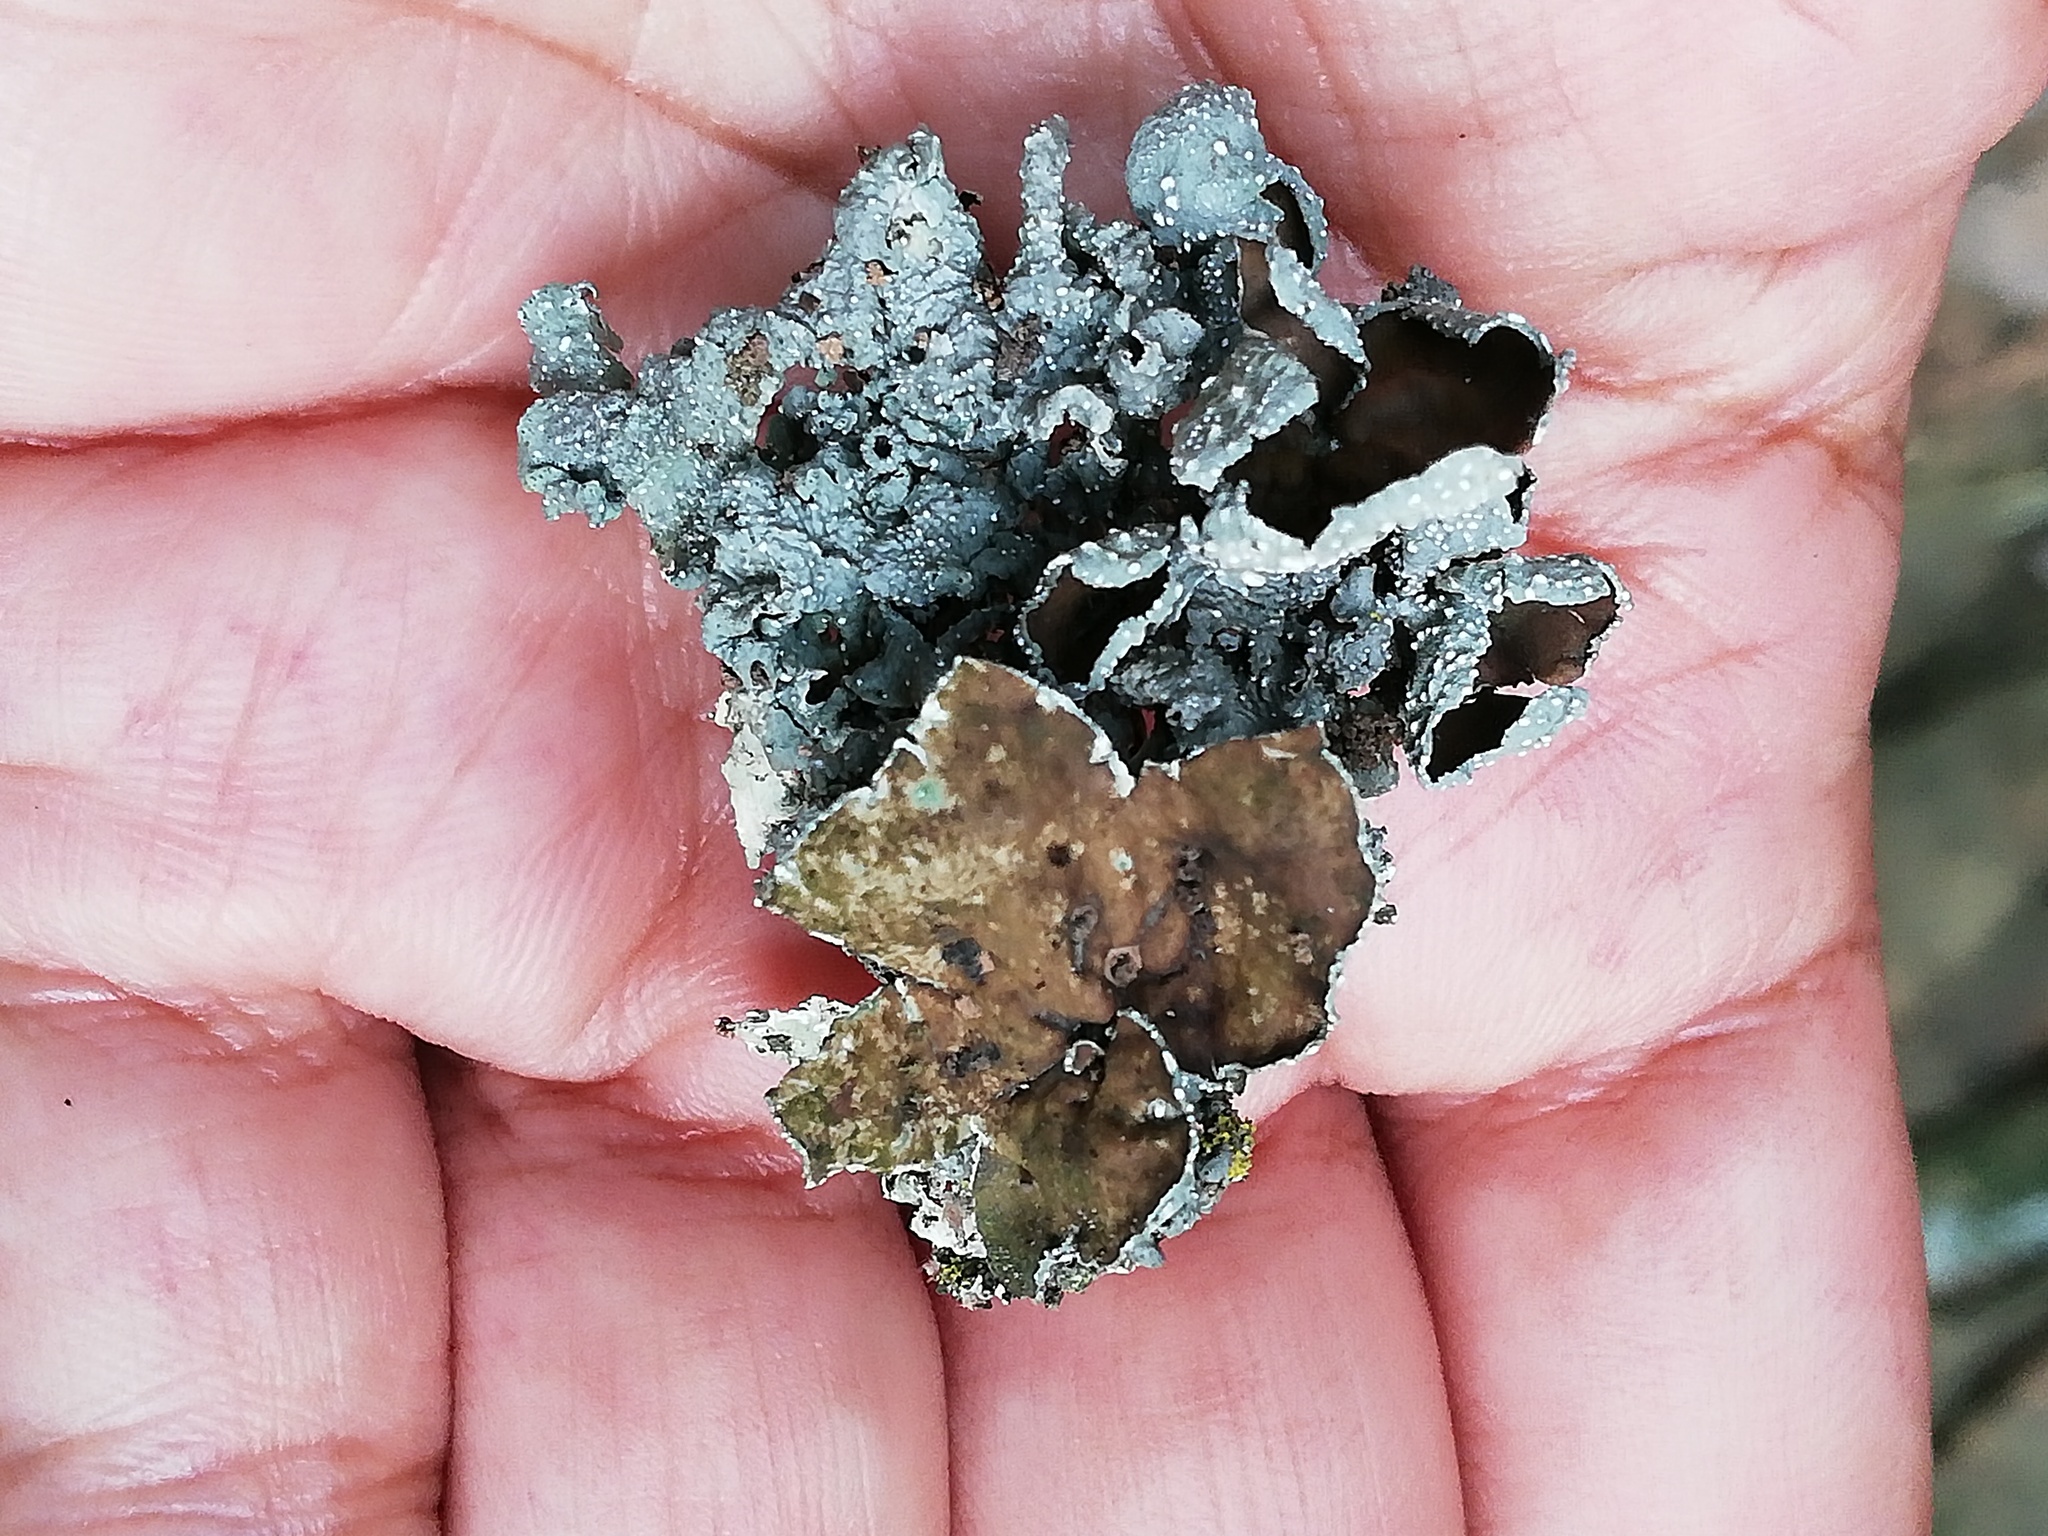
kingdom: Fungi
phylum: Ascomycota
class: Lecanoromycetes
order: Lecanorales
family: Parmeliaceae
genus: Punctelia
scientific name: Punctelia bolliana
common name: Eastern speckled shield lichen
